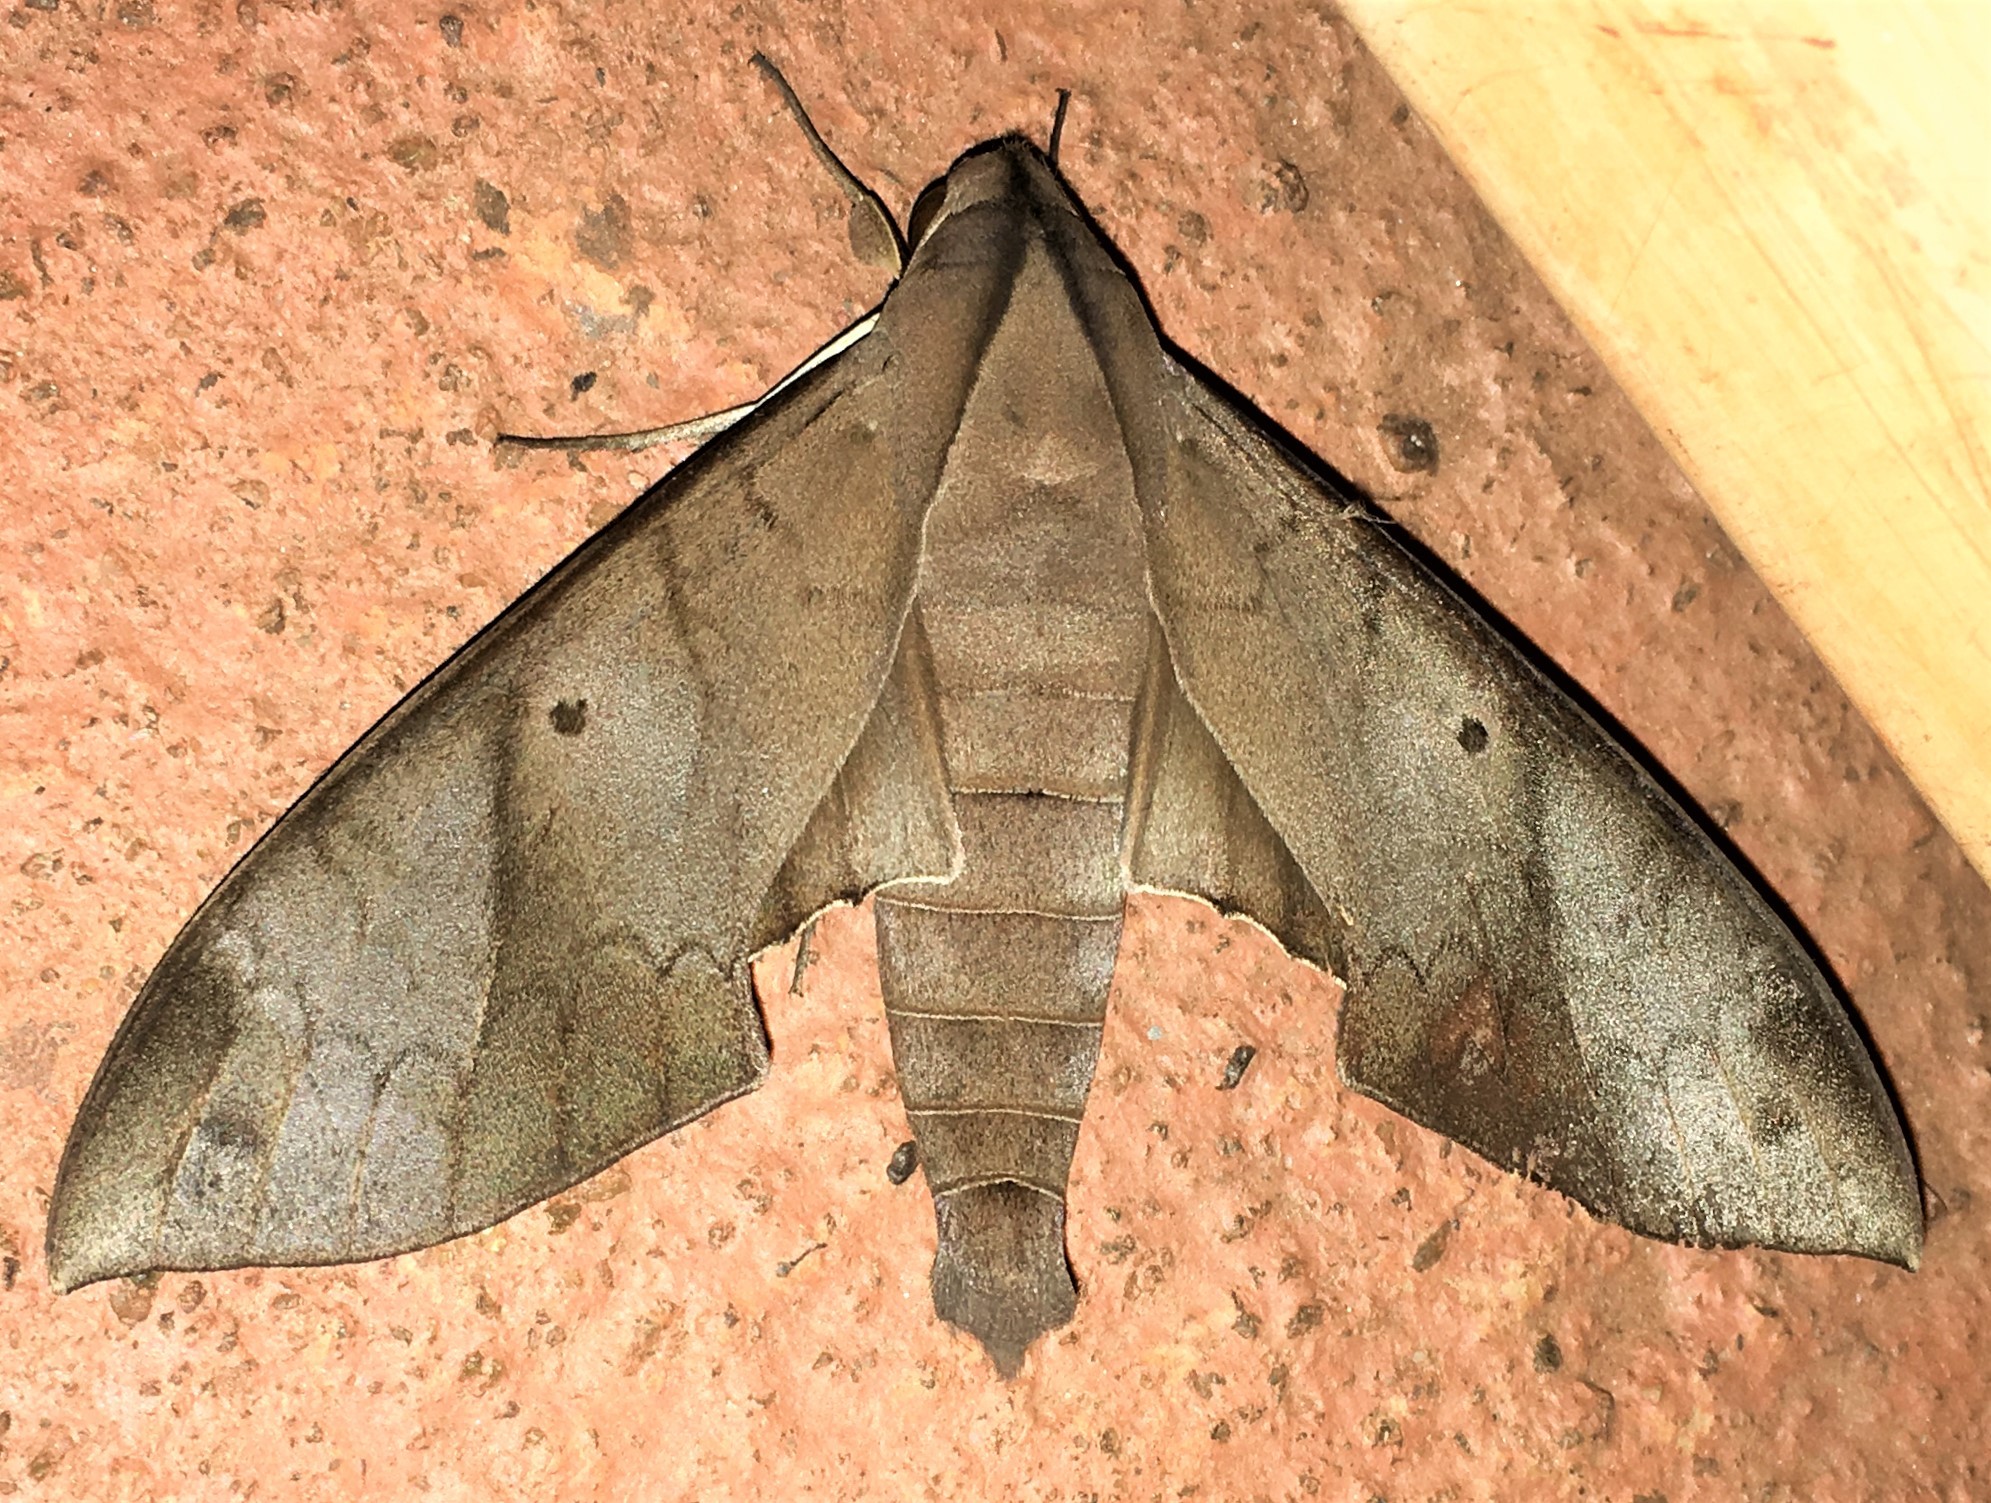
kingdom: Animalia
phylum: Arthropoda
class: Insecta
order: Lepidoptera
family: Sphingidae
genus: Pachylia
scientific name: Pachylia darceta
